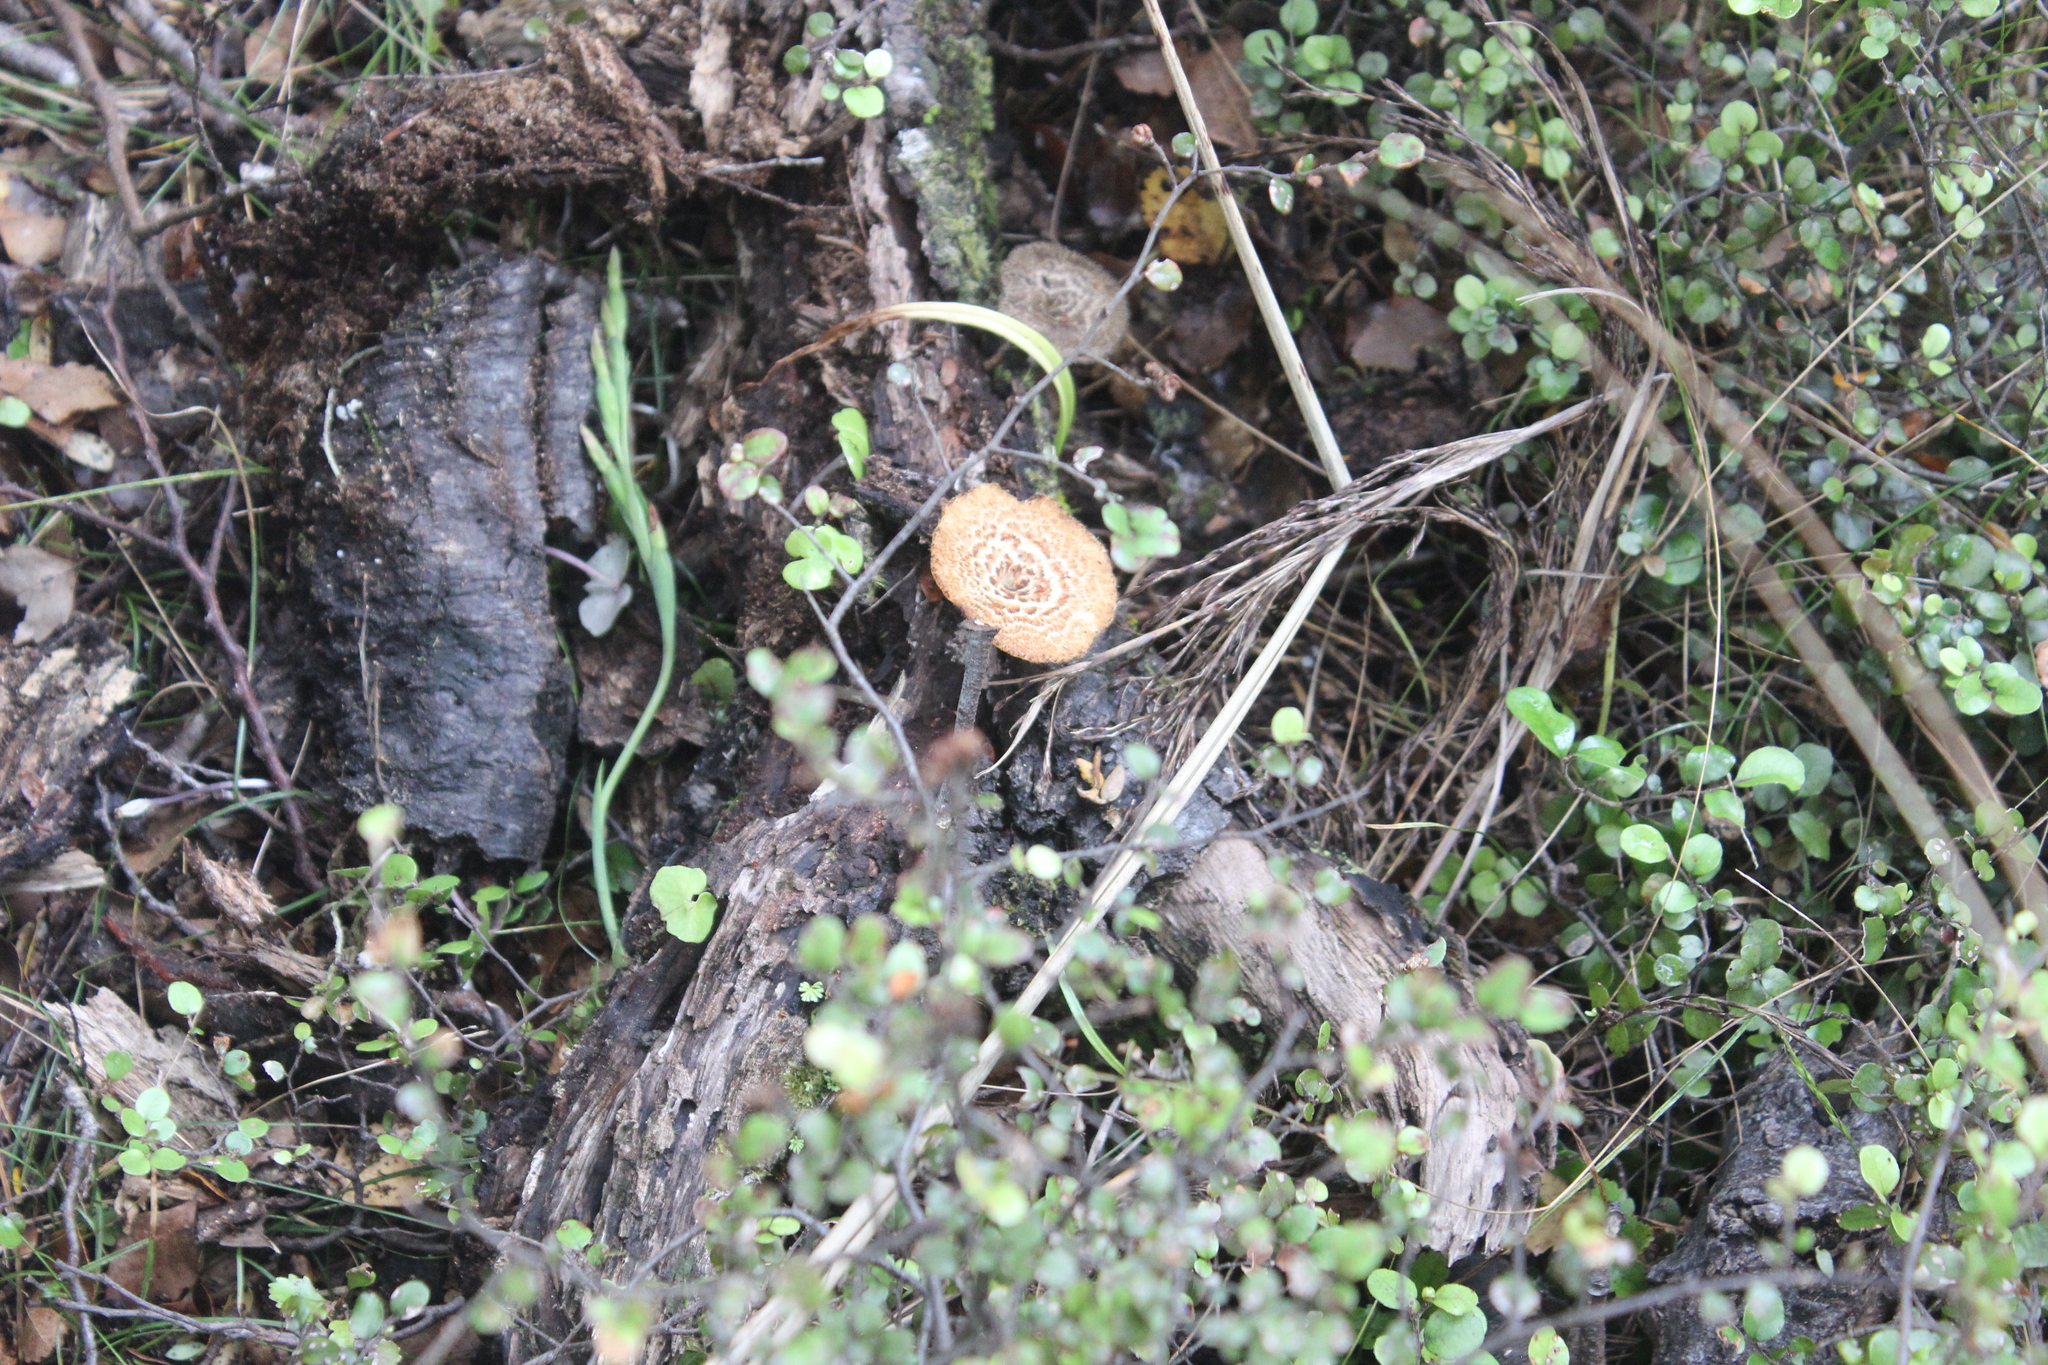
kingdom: Fungi
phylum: Basidiomycota
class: Agaricomycetes
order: Polyporales
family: Polyporaceae
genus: Lentinus
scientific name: Lentinus arcularius
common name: Spring polypore
